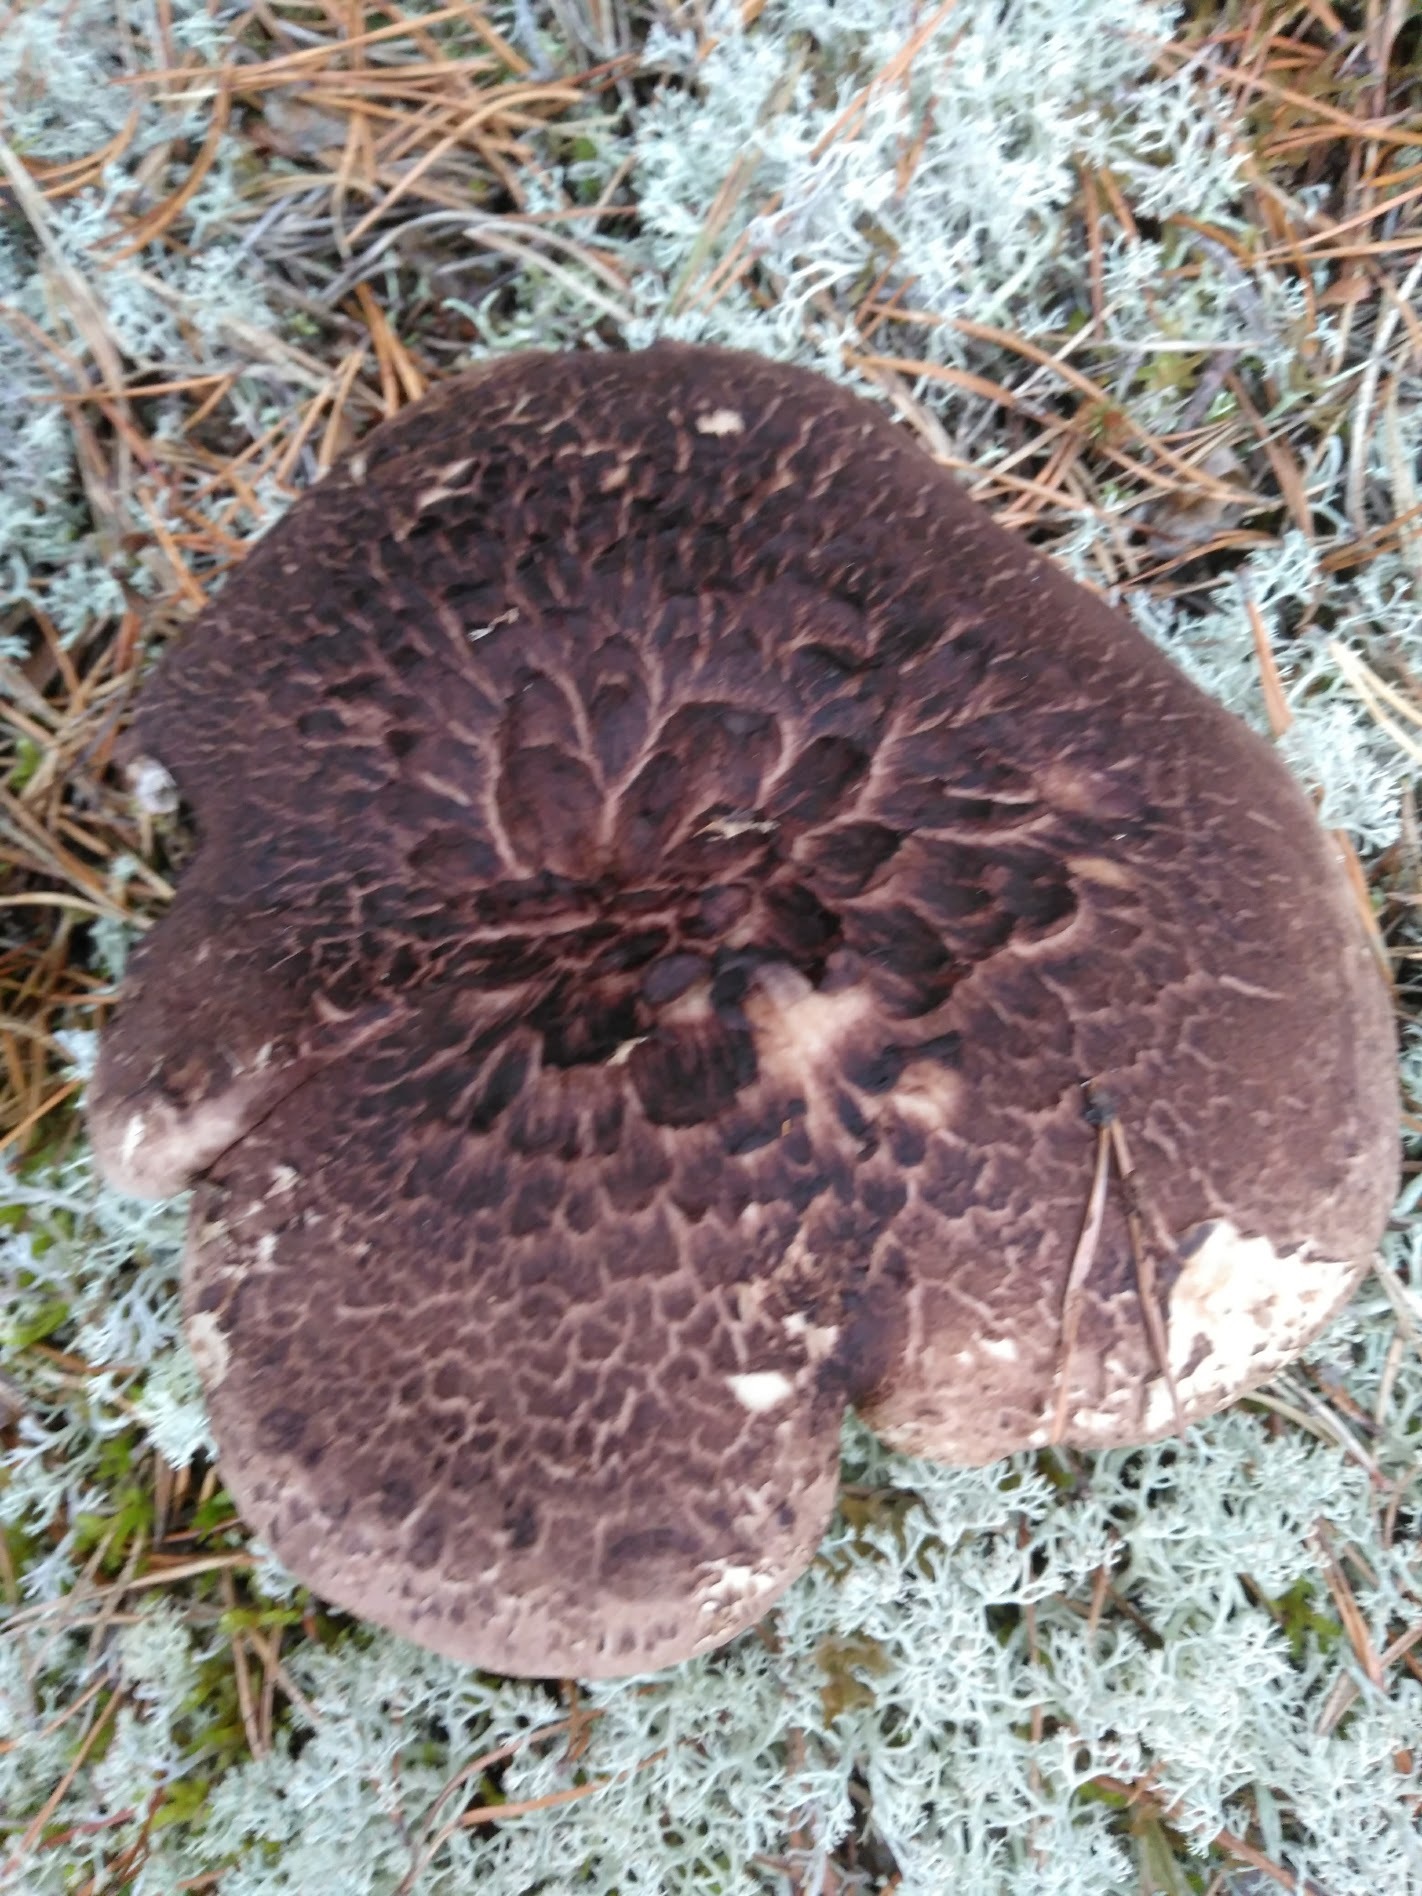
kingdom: Fungi
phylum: Basidiomycota
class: Agaricomycetes
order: Thelephorales
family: Bankeraceae
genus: Sarcodon
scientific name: Sarcodon squamosus
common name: Scaly tooth
